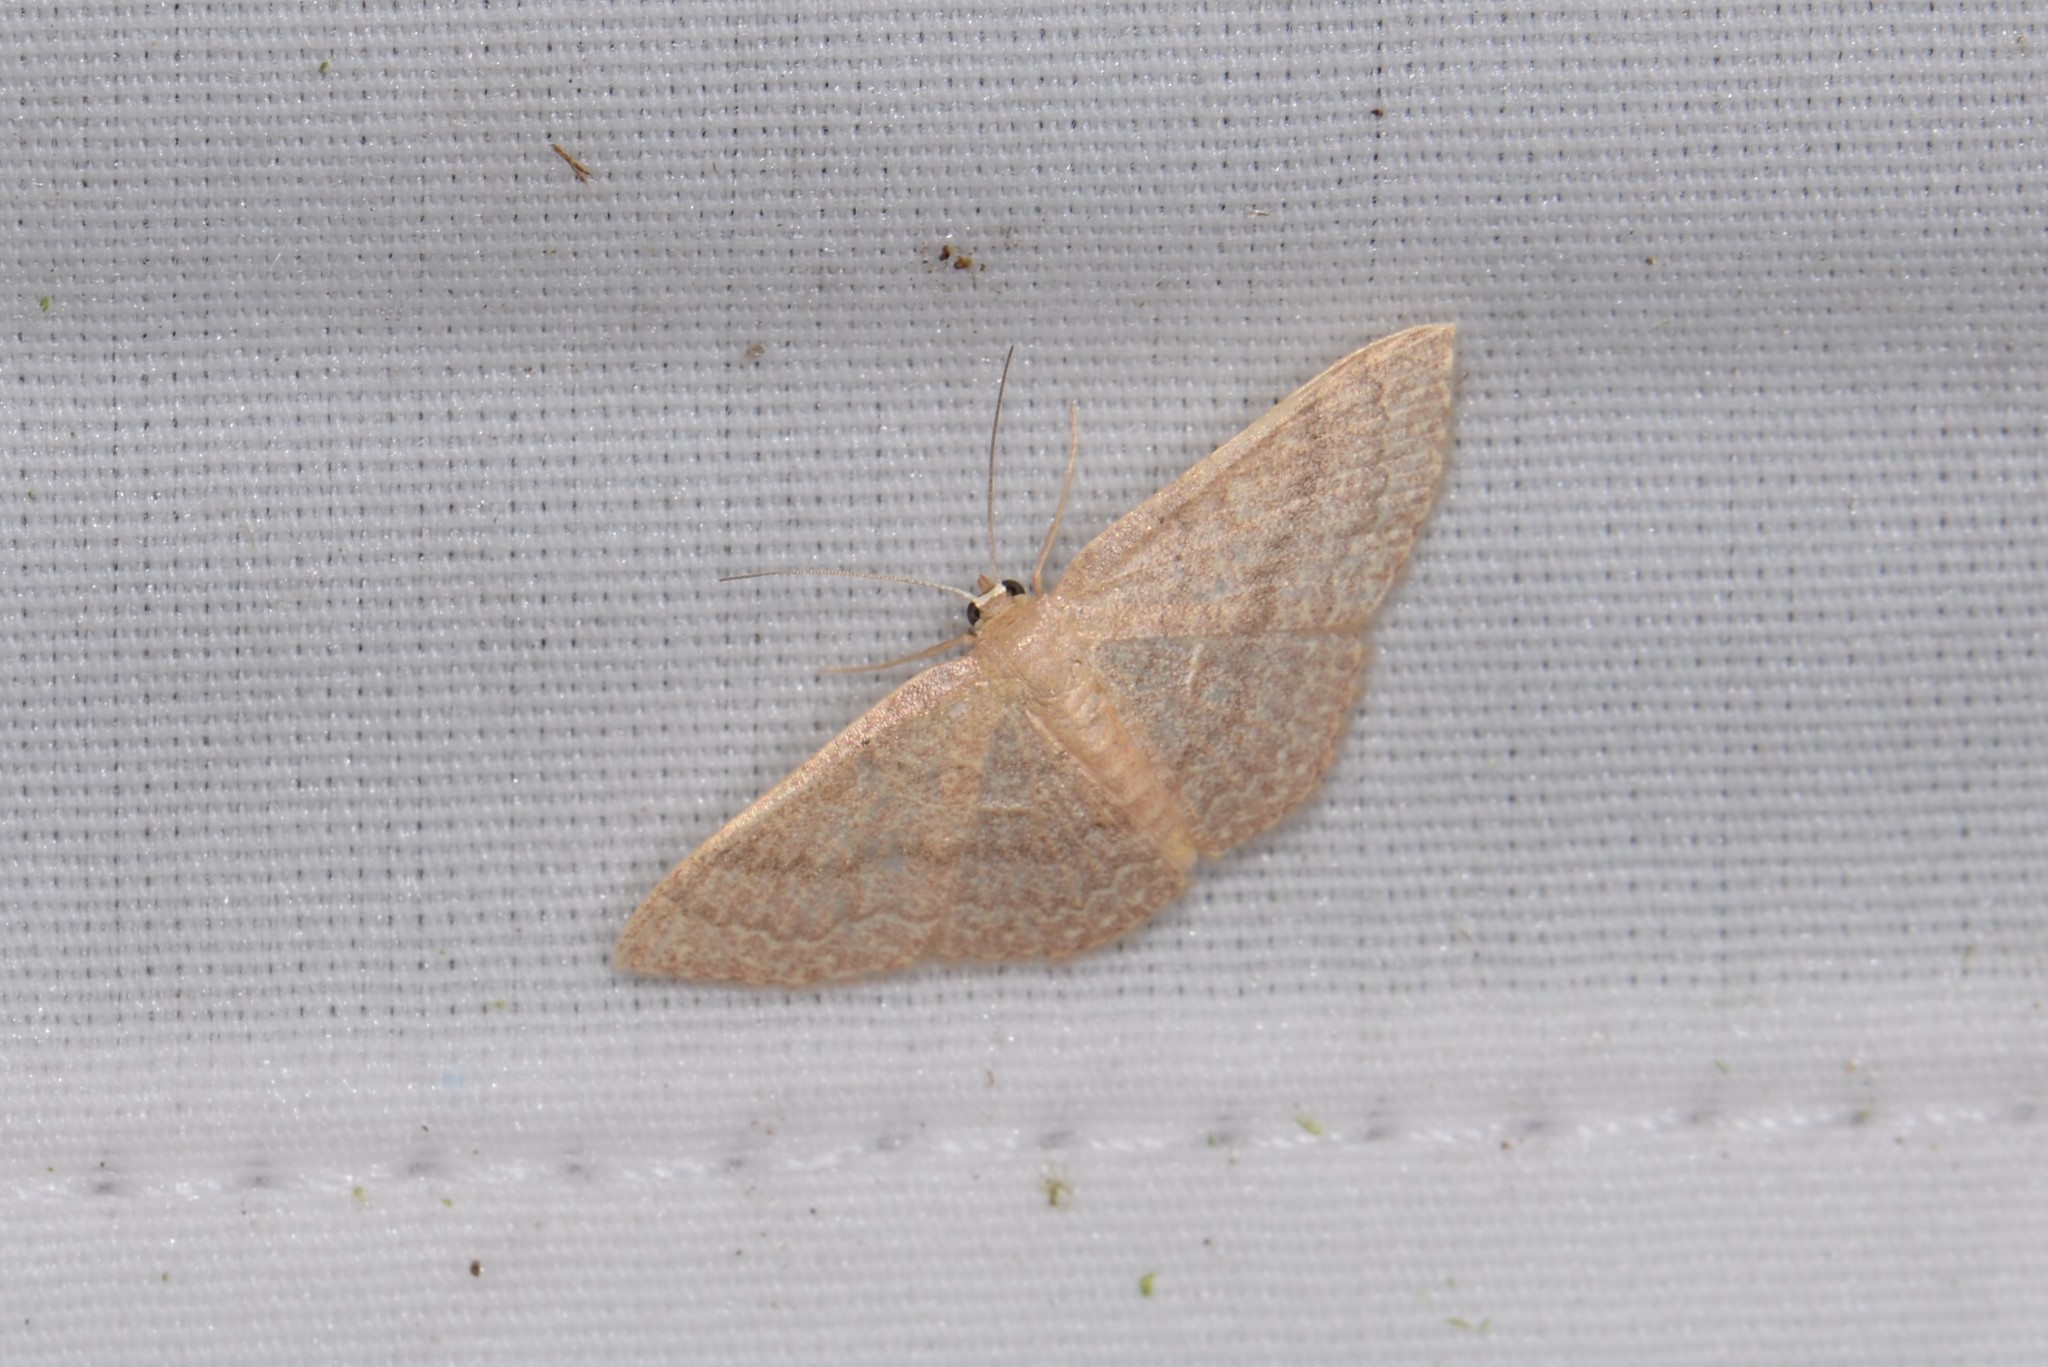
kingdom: Animalia
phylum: Arthropoda
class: Insecta
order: Lepidoptera
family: Geometridae
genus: Pleuroprucha
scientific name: Pleuroprucha insulsaria
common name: Common tan wave
